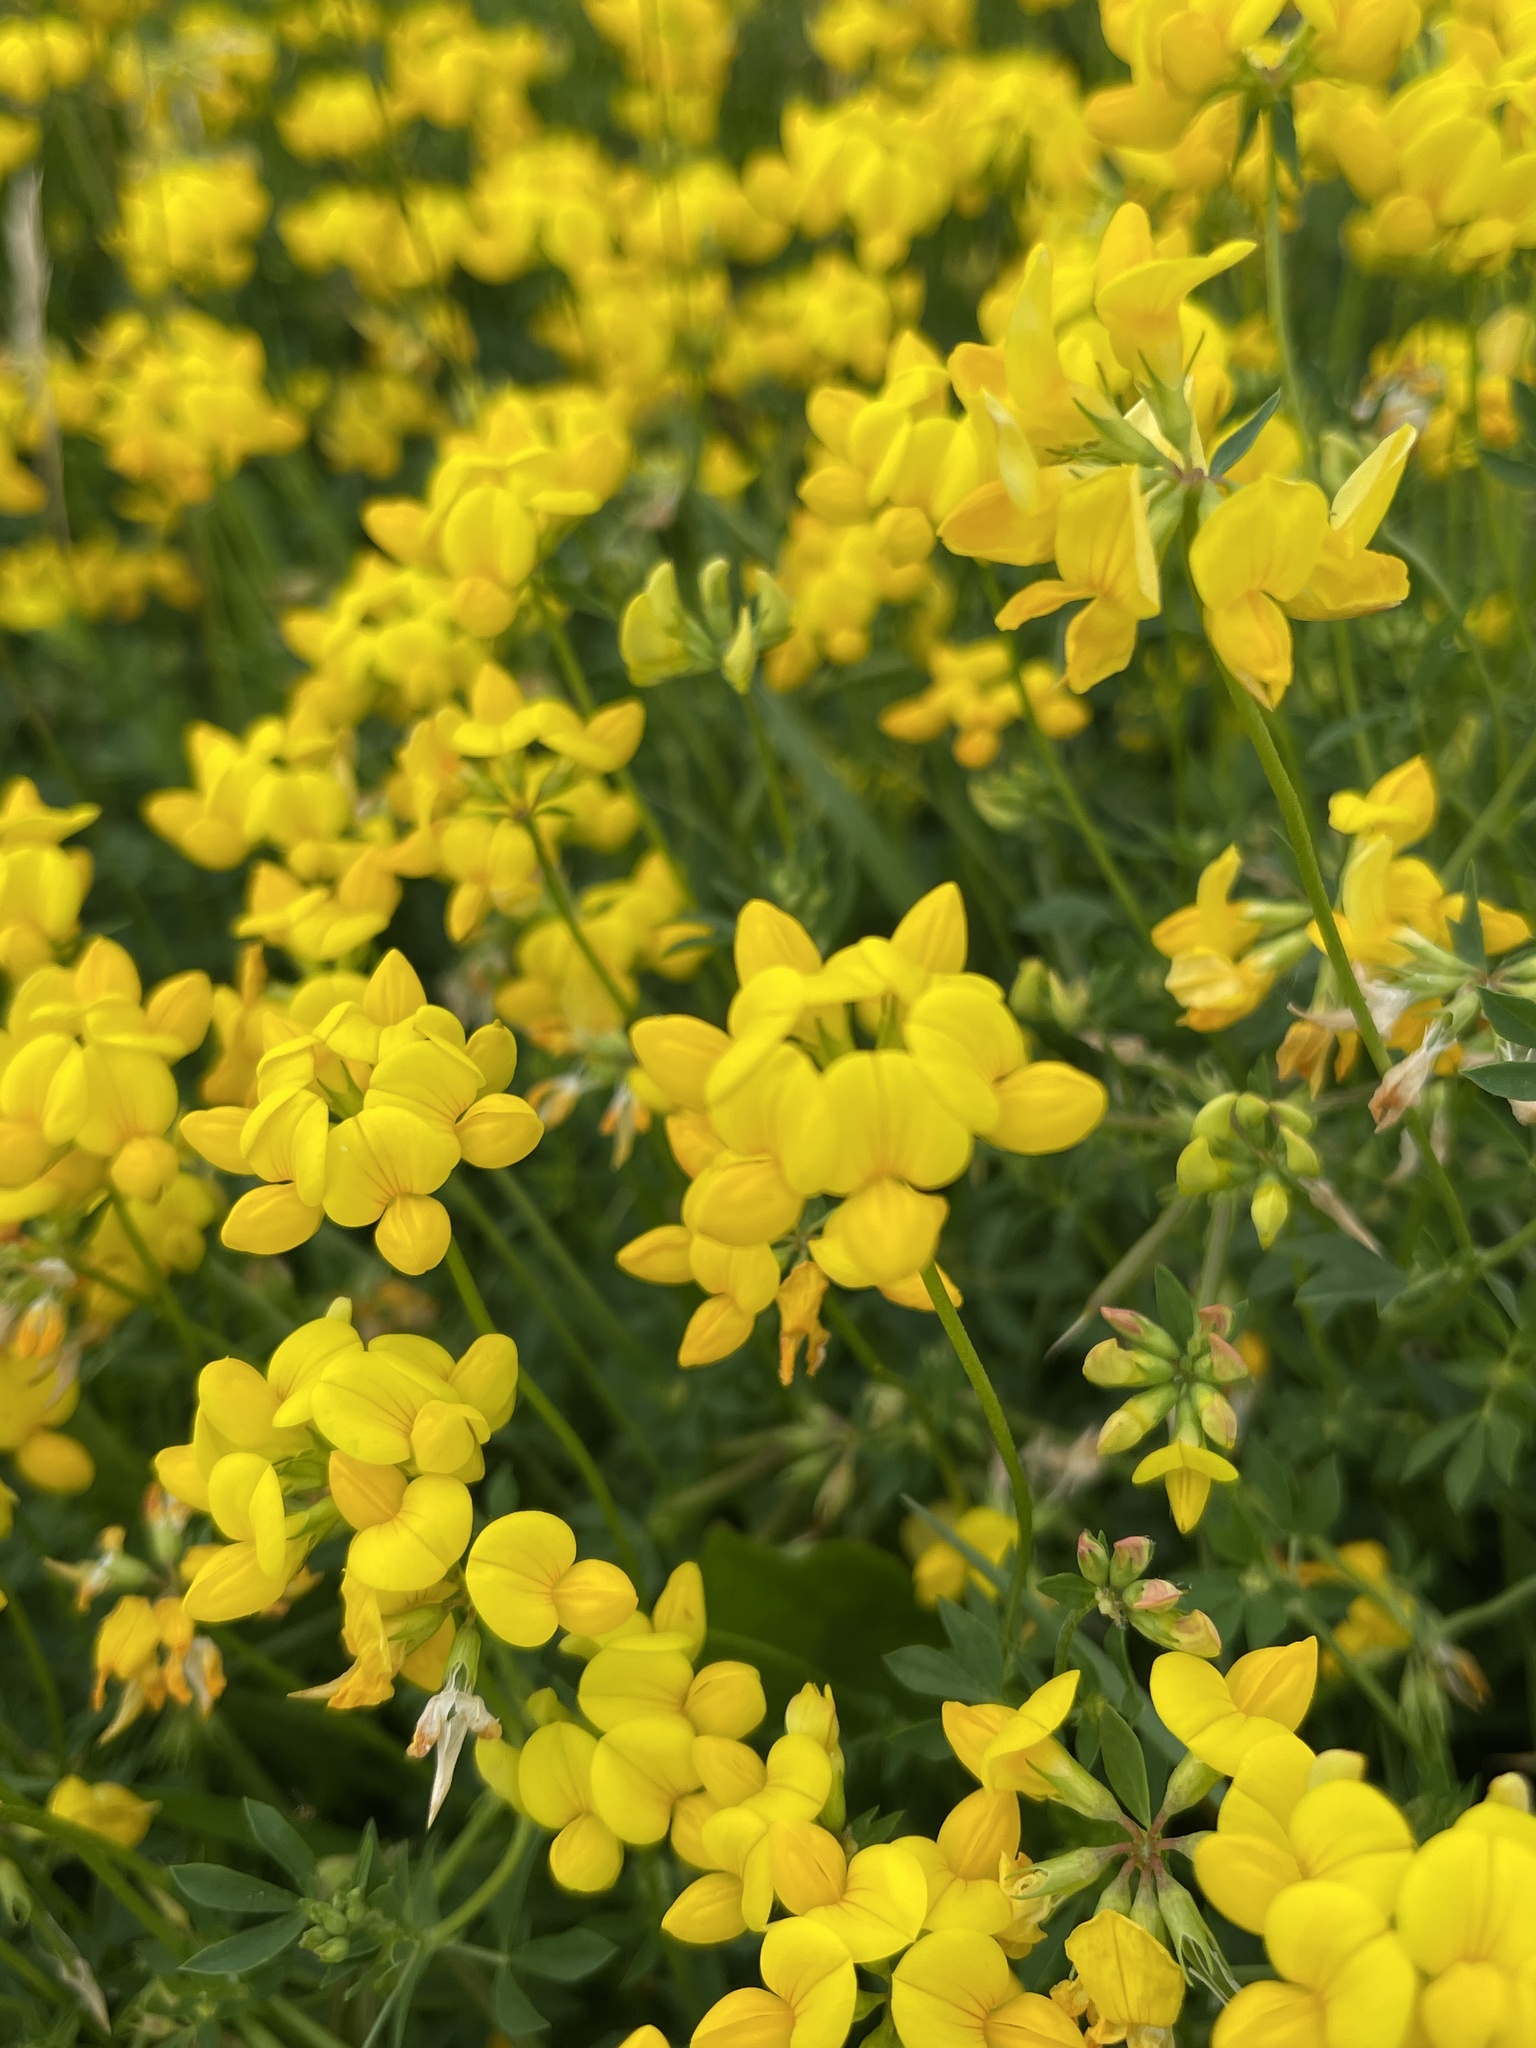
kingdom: Plantae
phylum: Tracheophyta
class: Magnoliopsida
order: Fabales
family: Fabaceae
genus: Lotus
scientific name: Lotus corniculatus
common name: Common bird's-foot-trefoil
